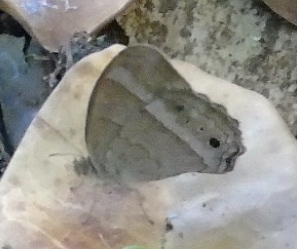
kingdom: Animalia
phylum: Arthropoda
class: Insecta
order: Lepidoptera
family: Nymphalidae
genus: Vareuptychia
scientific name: Vareuptychia similis
